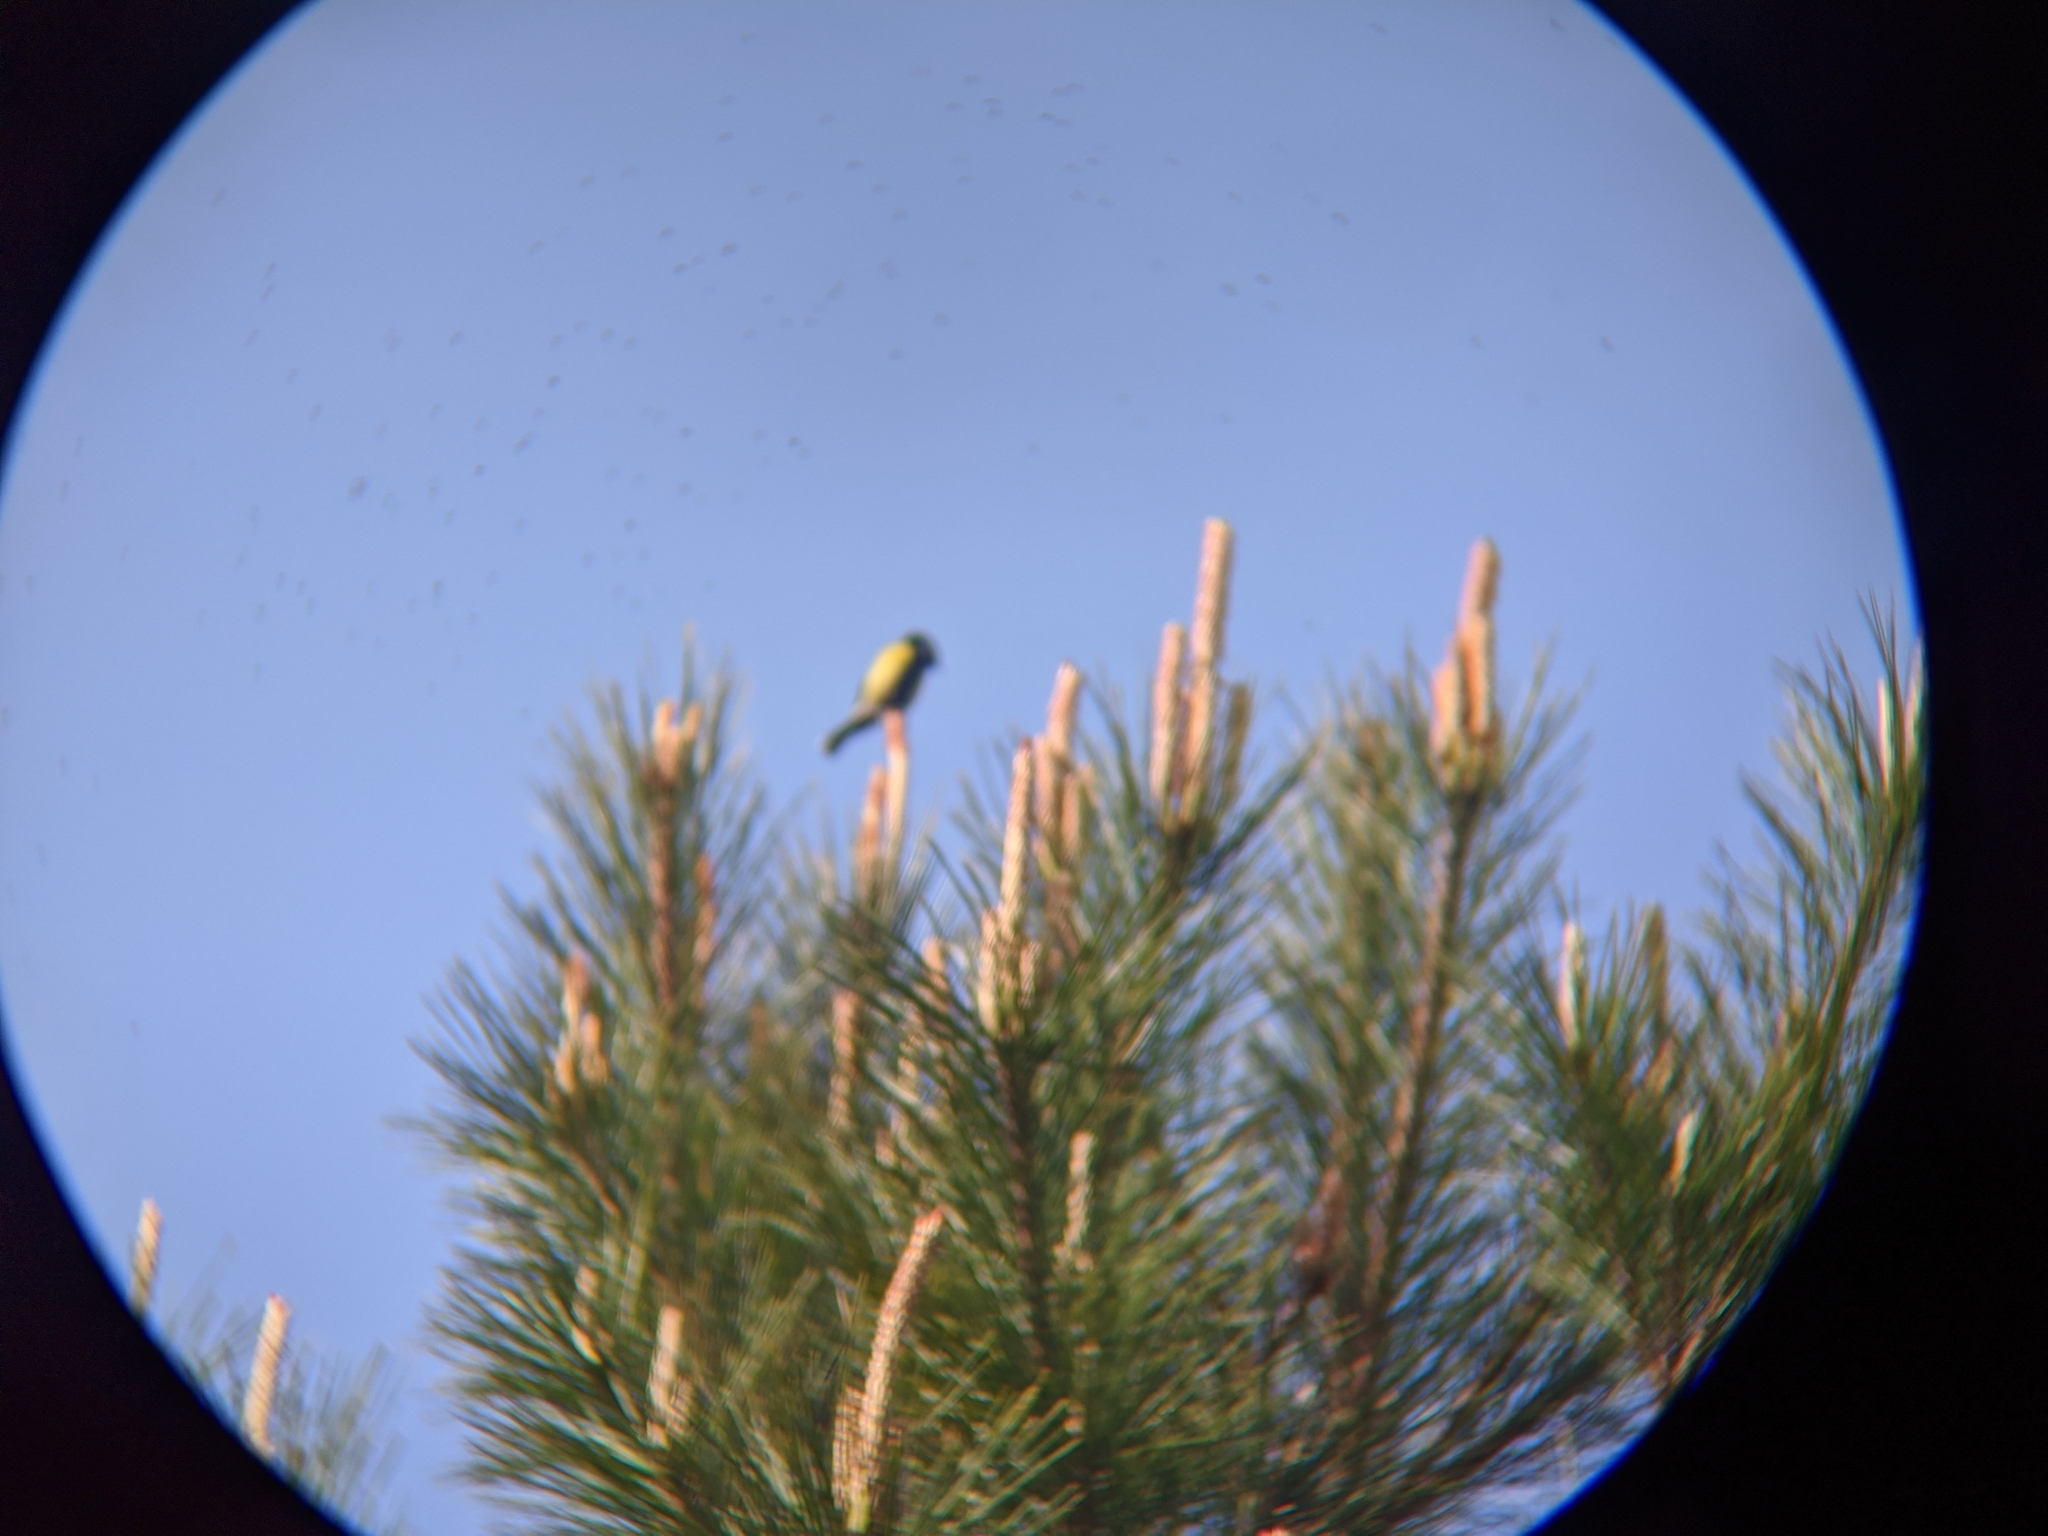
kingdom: Animalia
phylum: Chordata
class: Aves
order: Passeriformes
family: Paridae
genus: Parus
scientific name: Parus monticolus
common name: Green-backed tit
